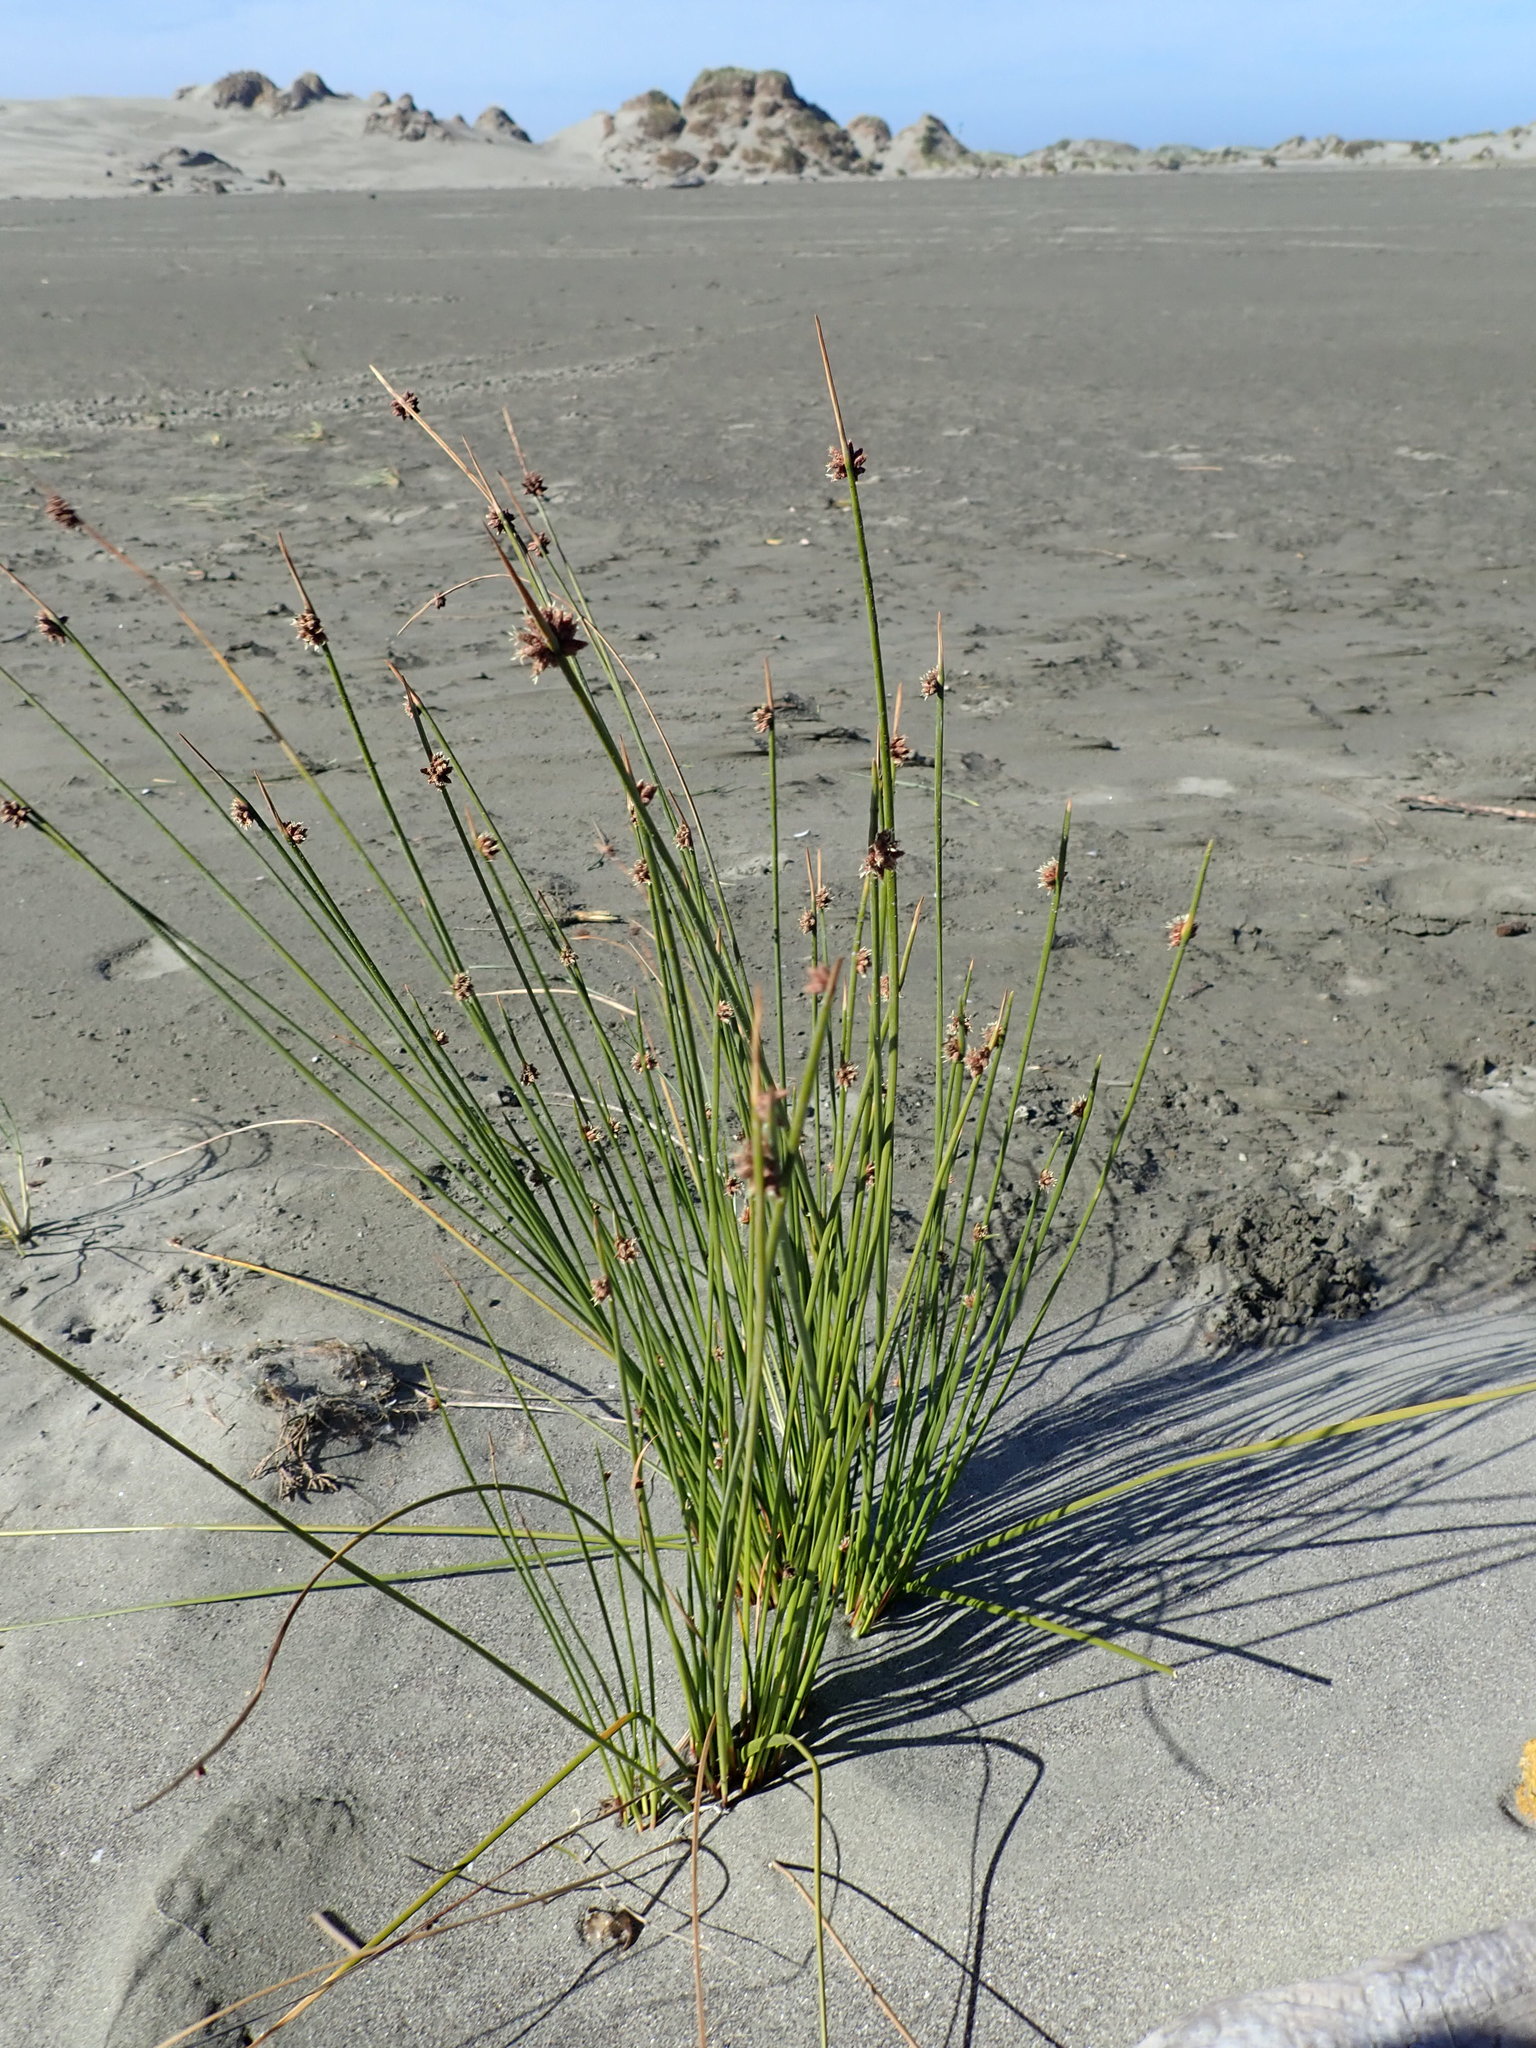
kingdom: Plantae
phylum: Tracheophyta
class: Liliopsida
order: Poales
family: Cyperaceae
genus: Ficinia
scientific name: Ficinia nodosa
